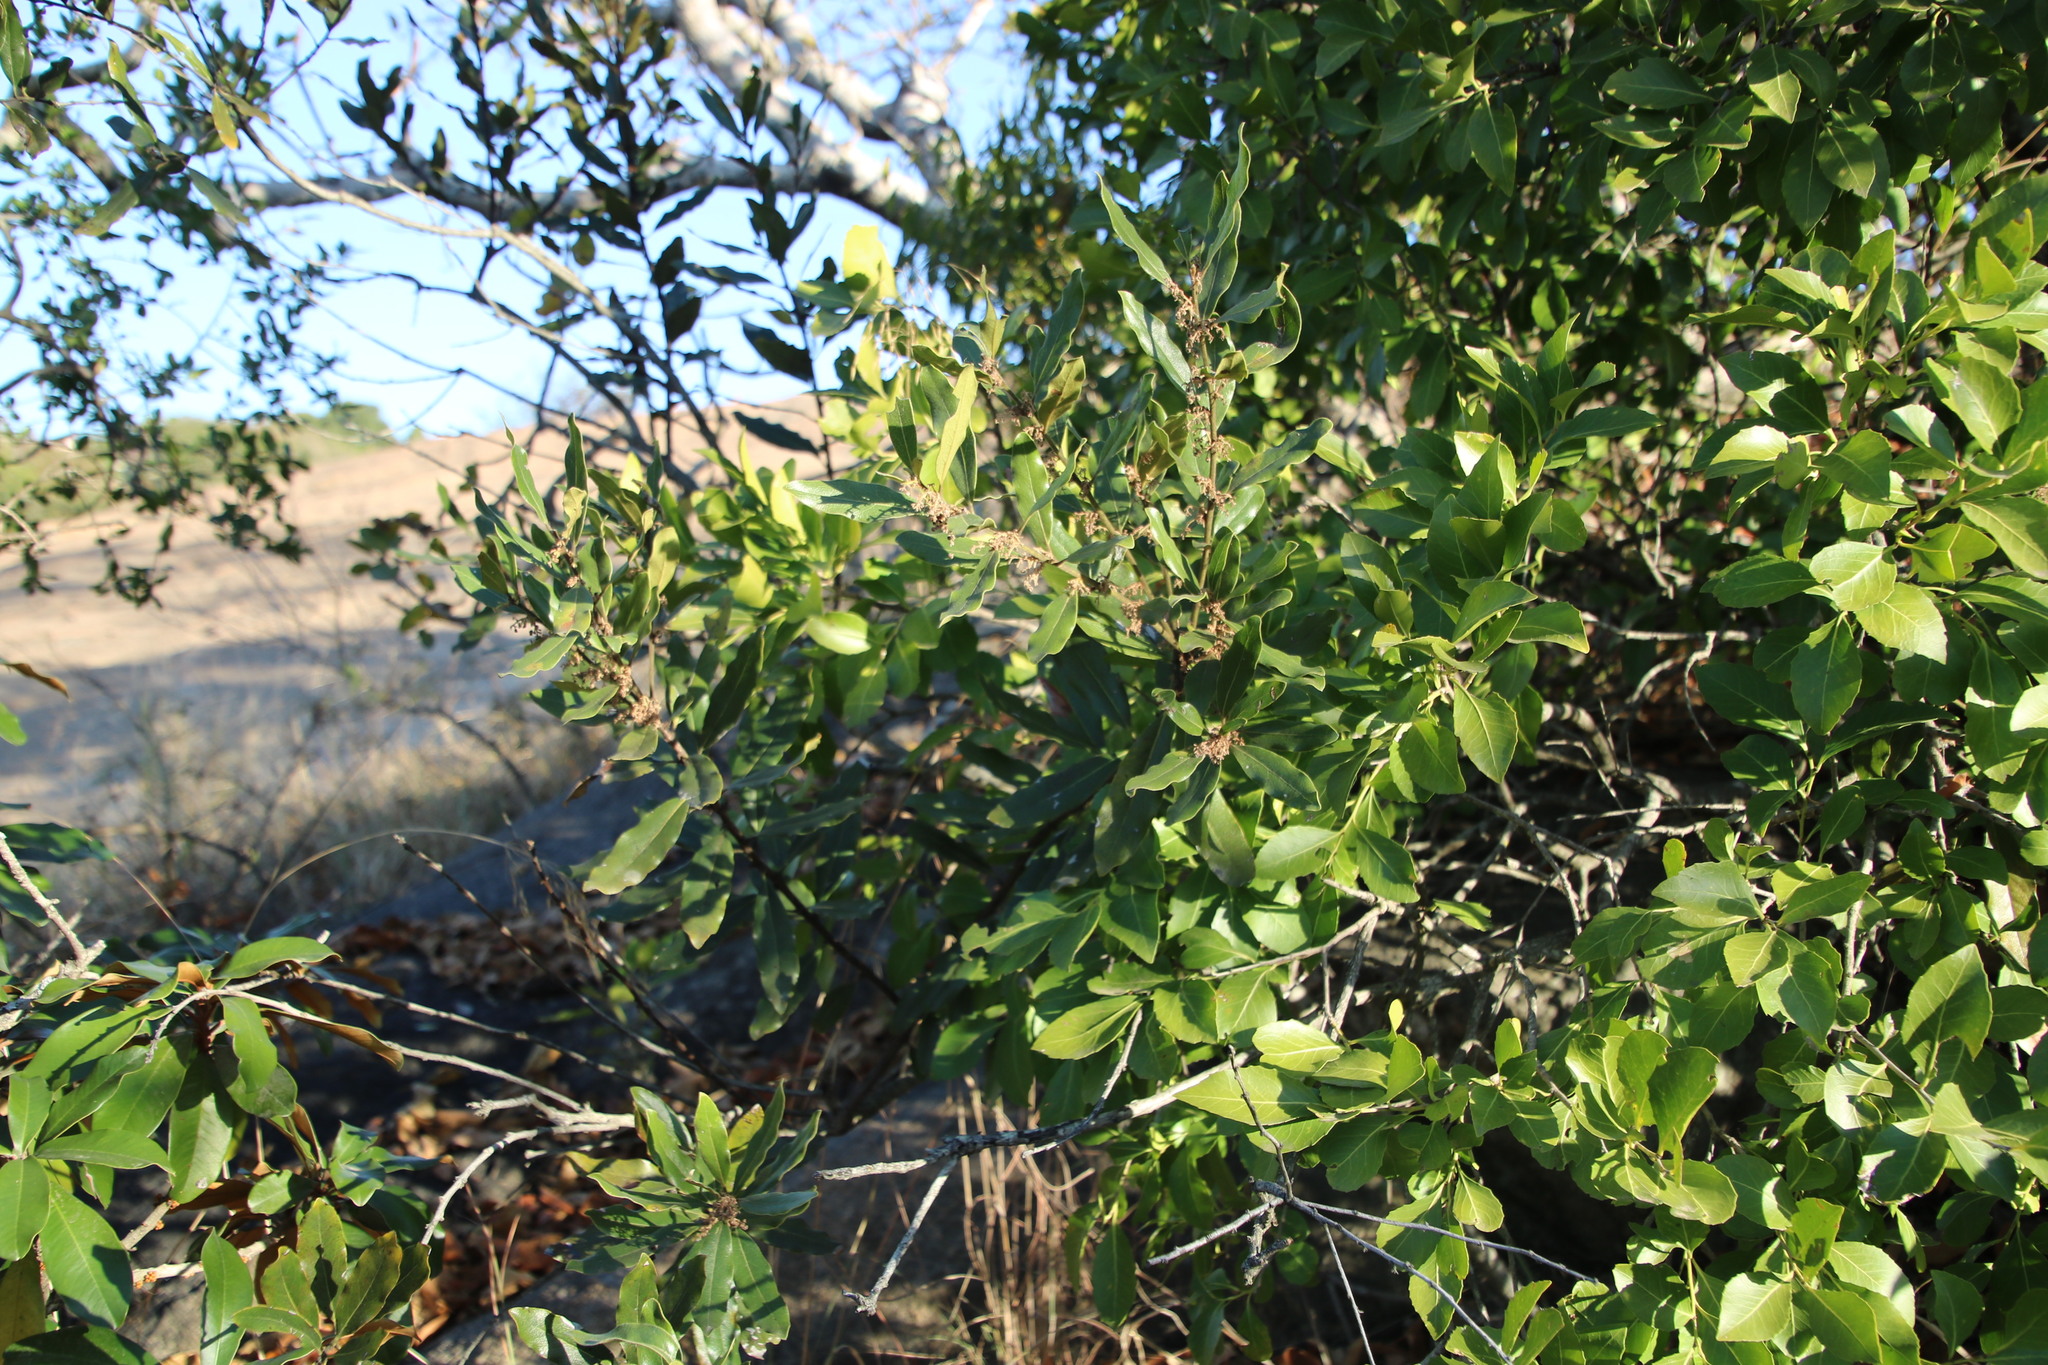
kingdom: Plantae
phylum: Tracheophyta
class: Magnoliopsida
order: Ericales
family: Ebenaceae
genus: Euclea
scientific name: Euclea natalensis
